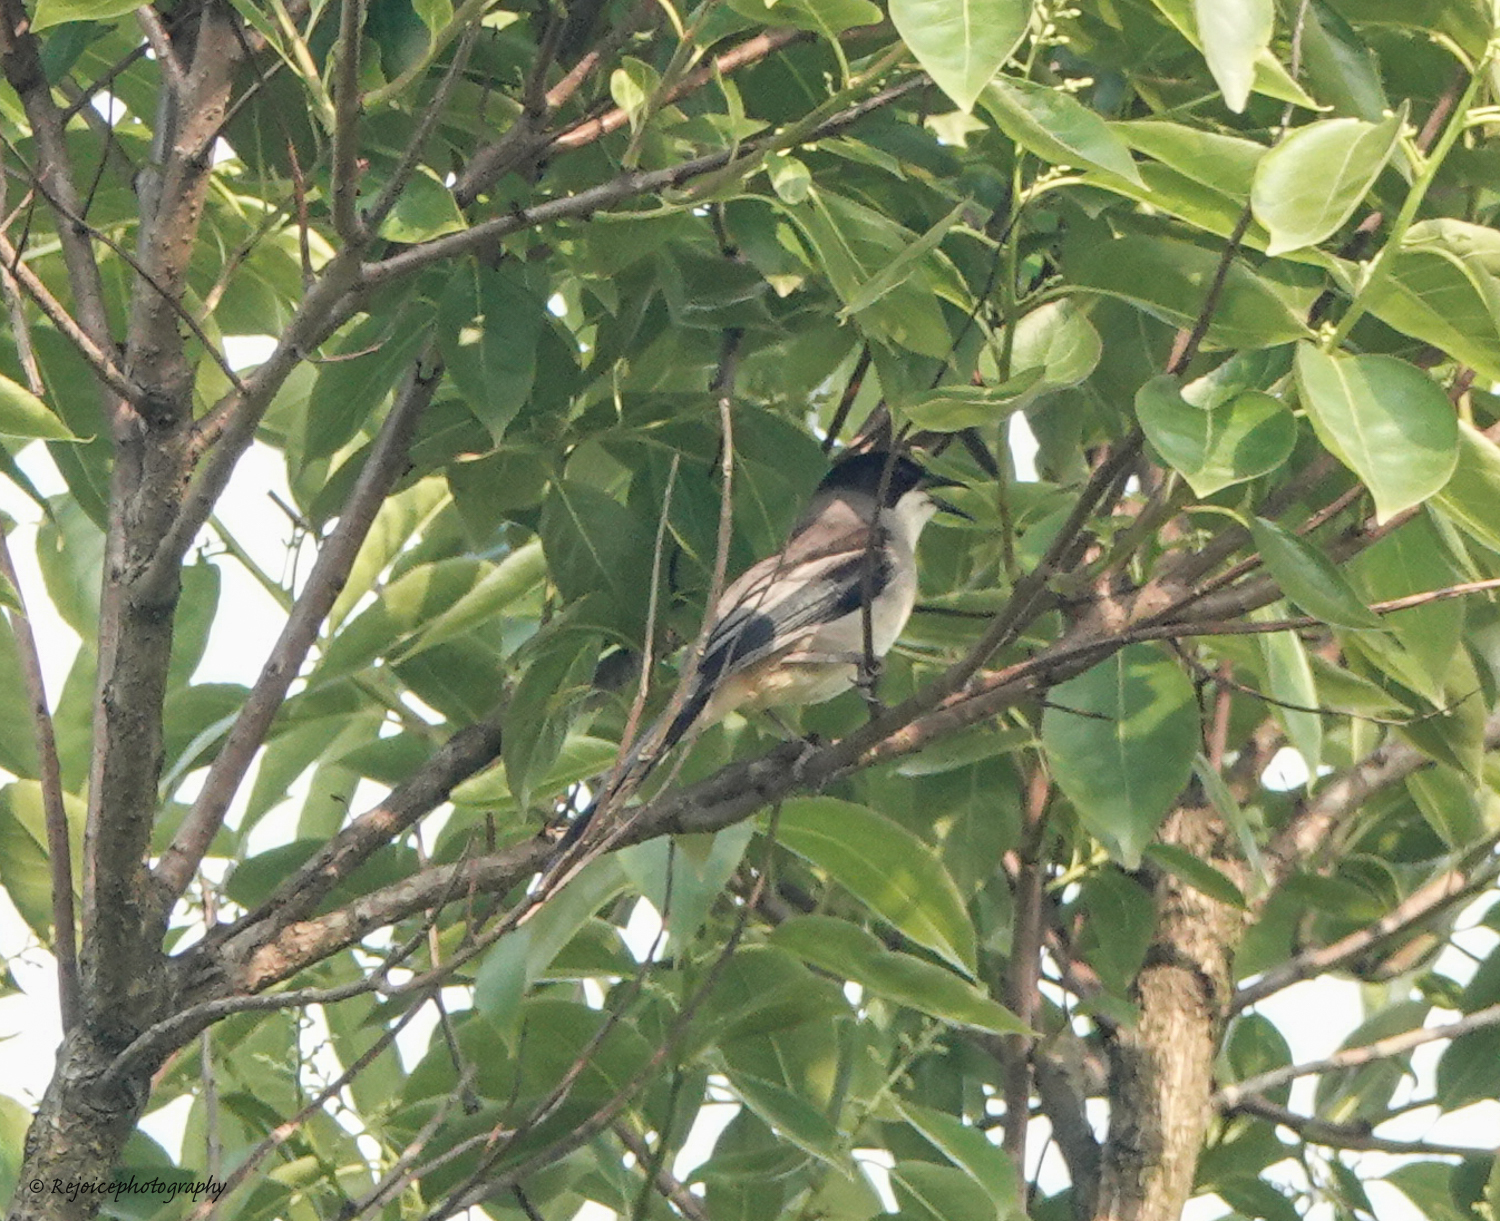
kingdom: Animalia
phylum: Chordata
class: Aves
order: Passeriformes
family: Leiothrichidae
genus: Heterophasia
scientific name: Heterophasia gracilis
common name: Grey sibia
